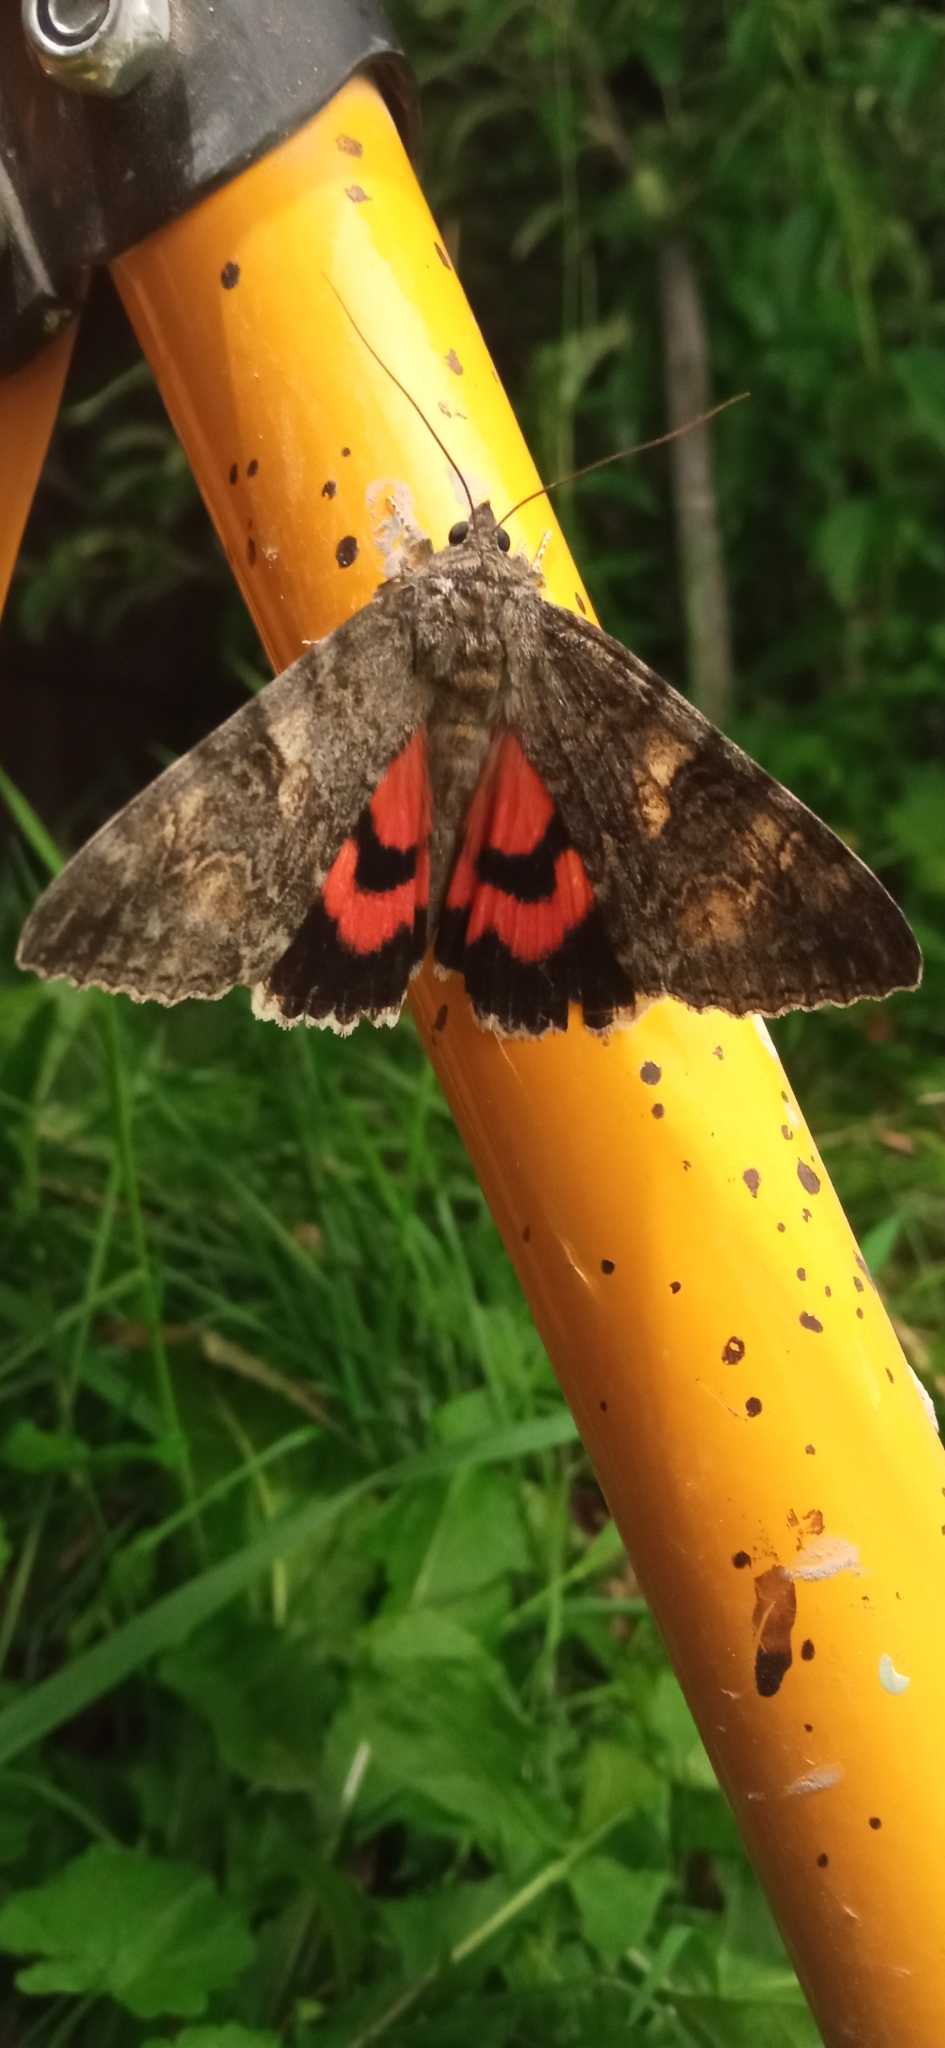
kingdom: Animalia
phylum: Arthropoda
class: Insecta
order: Lepidoptera
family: Erebidae
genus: Catocala
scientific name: Catocala nupta
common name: Red underwing
